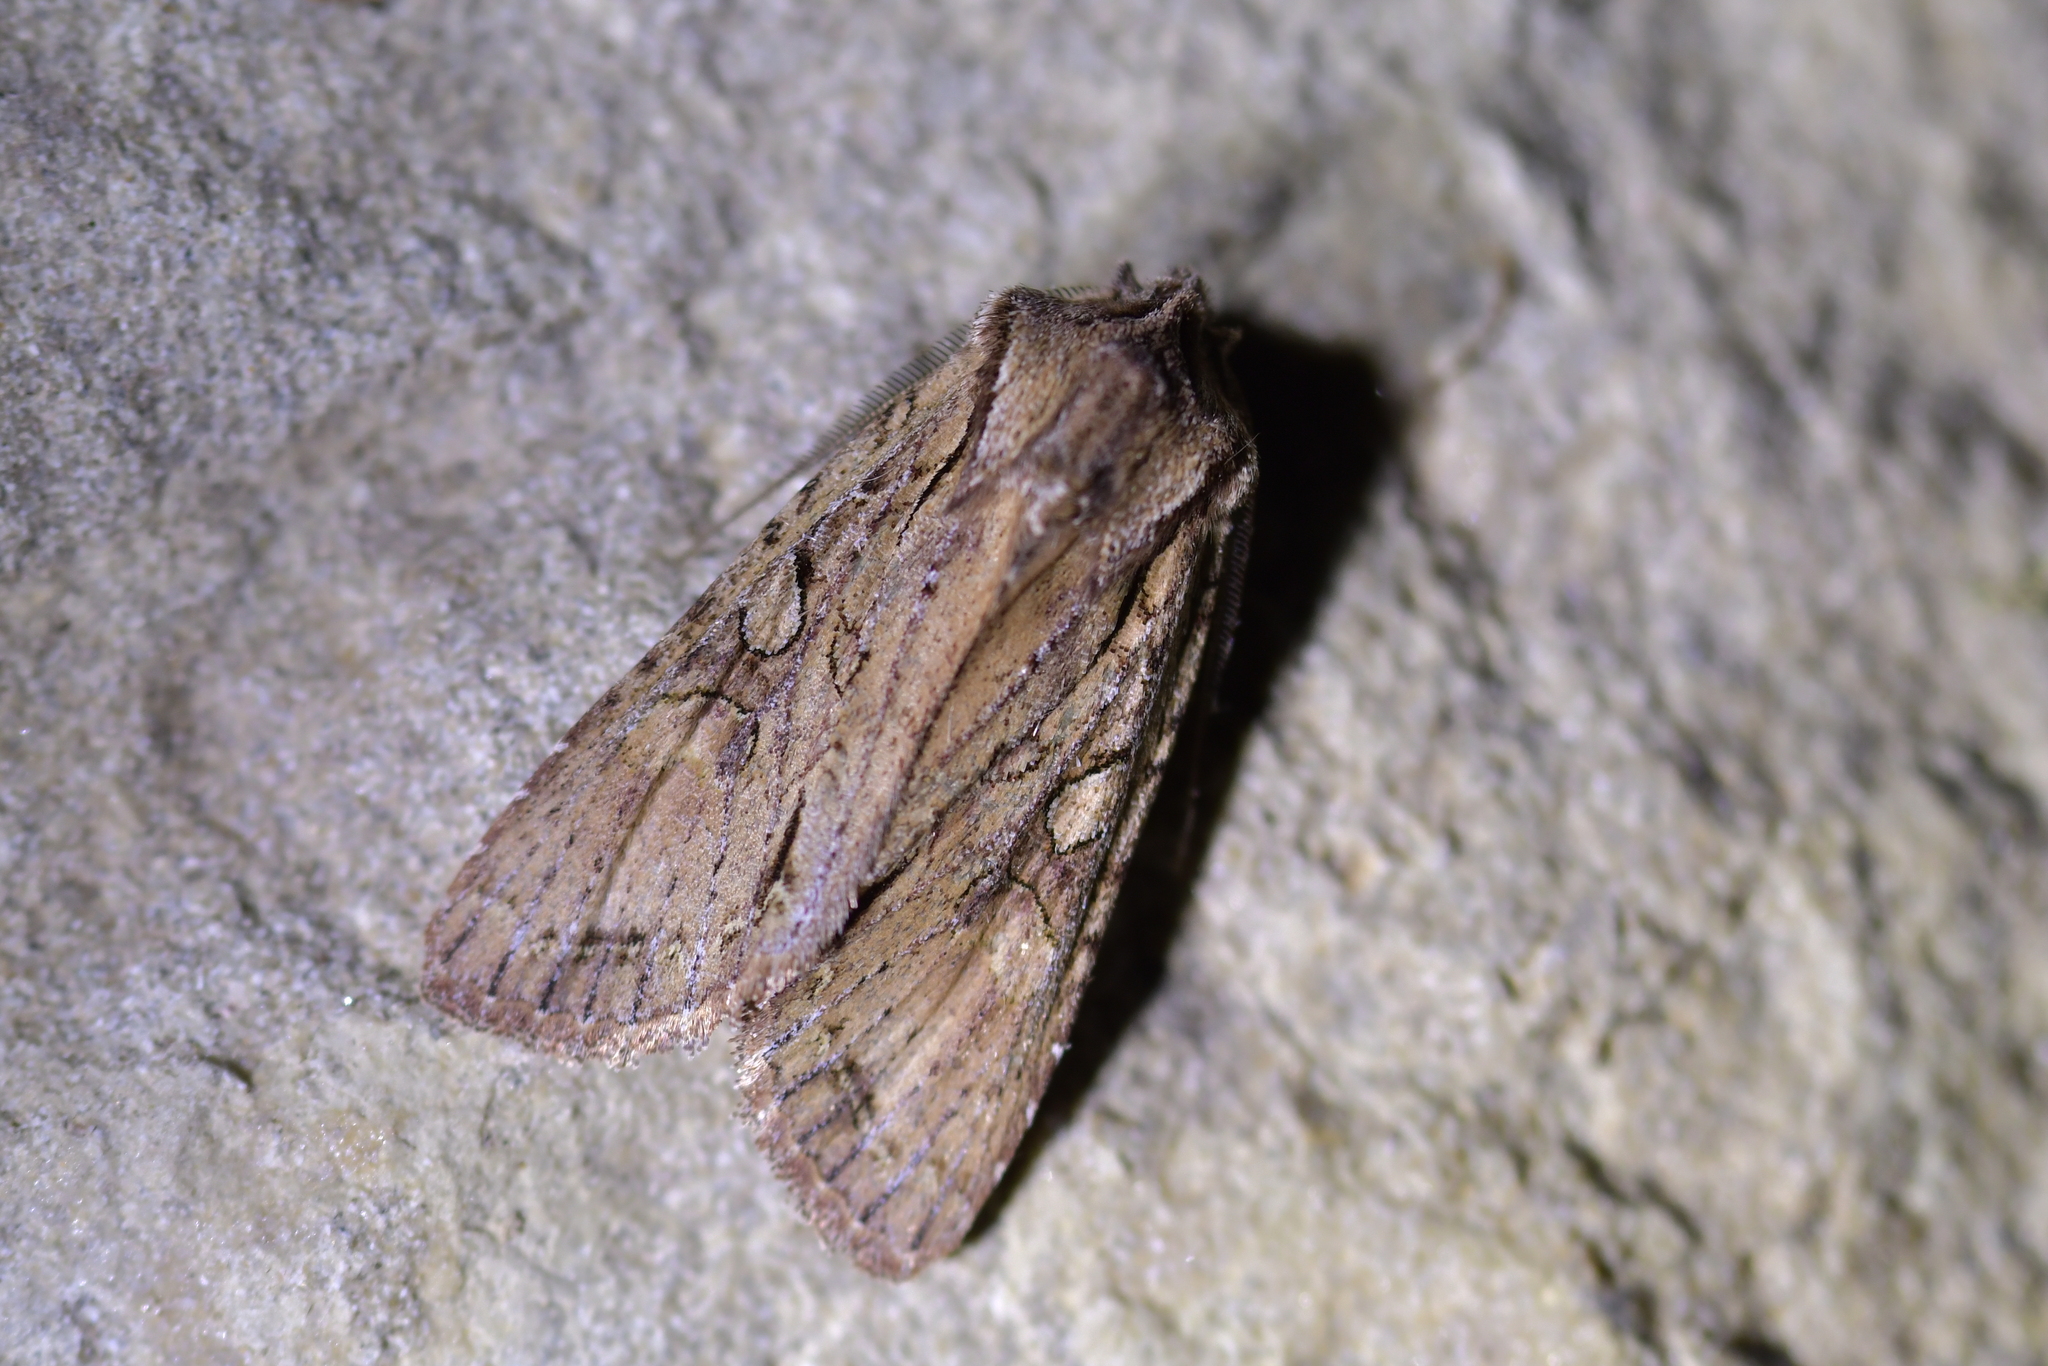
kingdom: Animalia
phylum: Arthropoda
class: Insecta
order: Lepidoptera
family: Noctuidae
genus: Ichneutica
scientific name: Ichneutica
